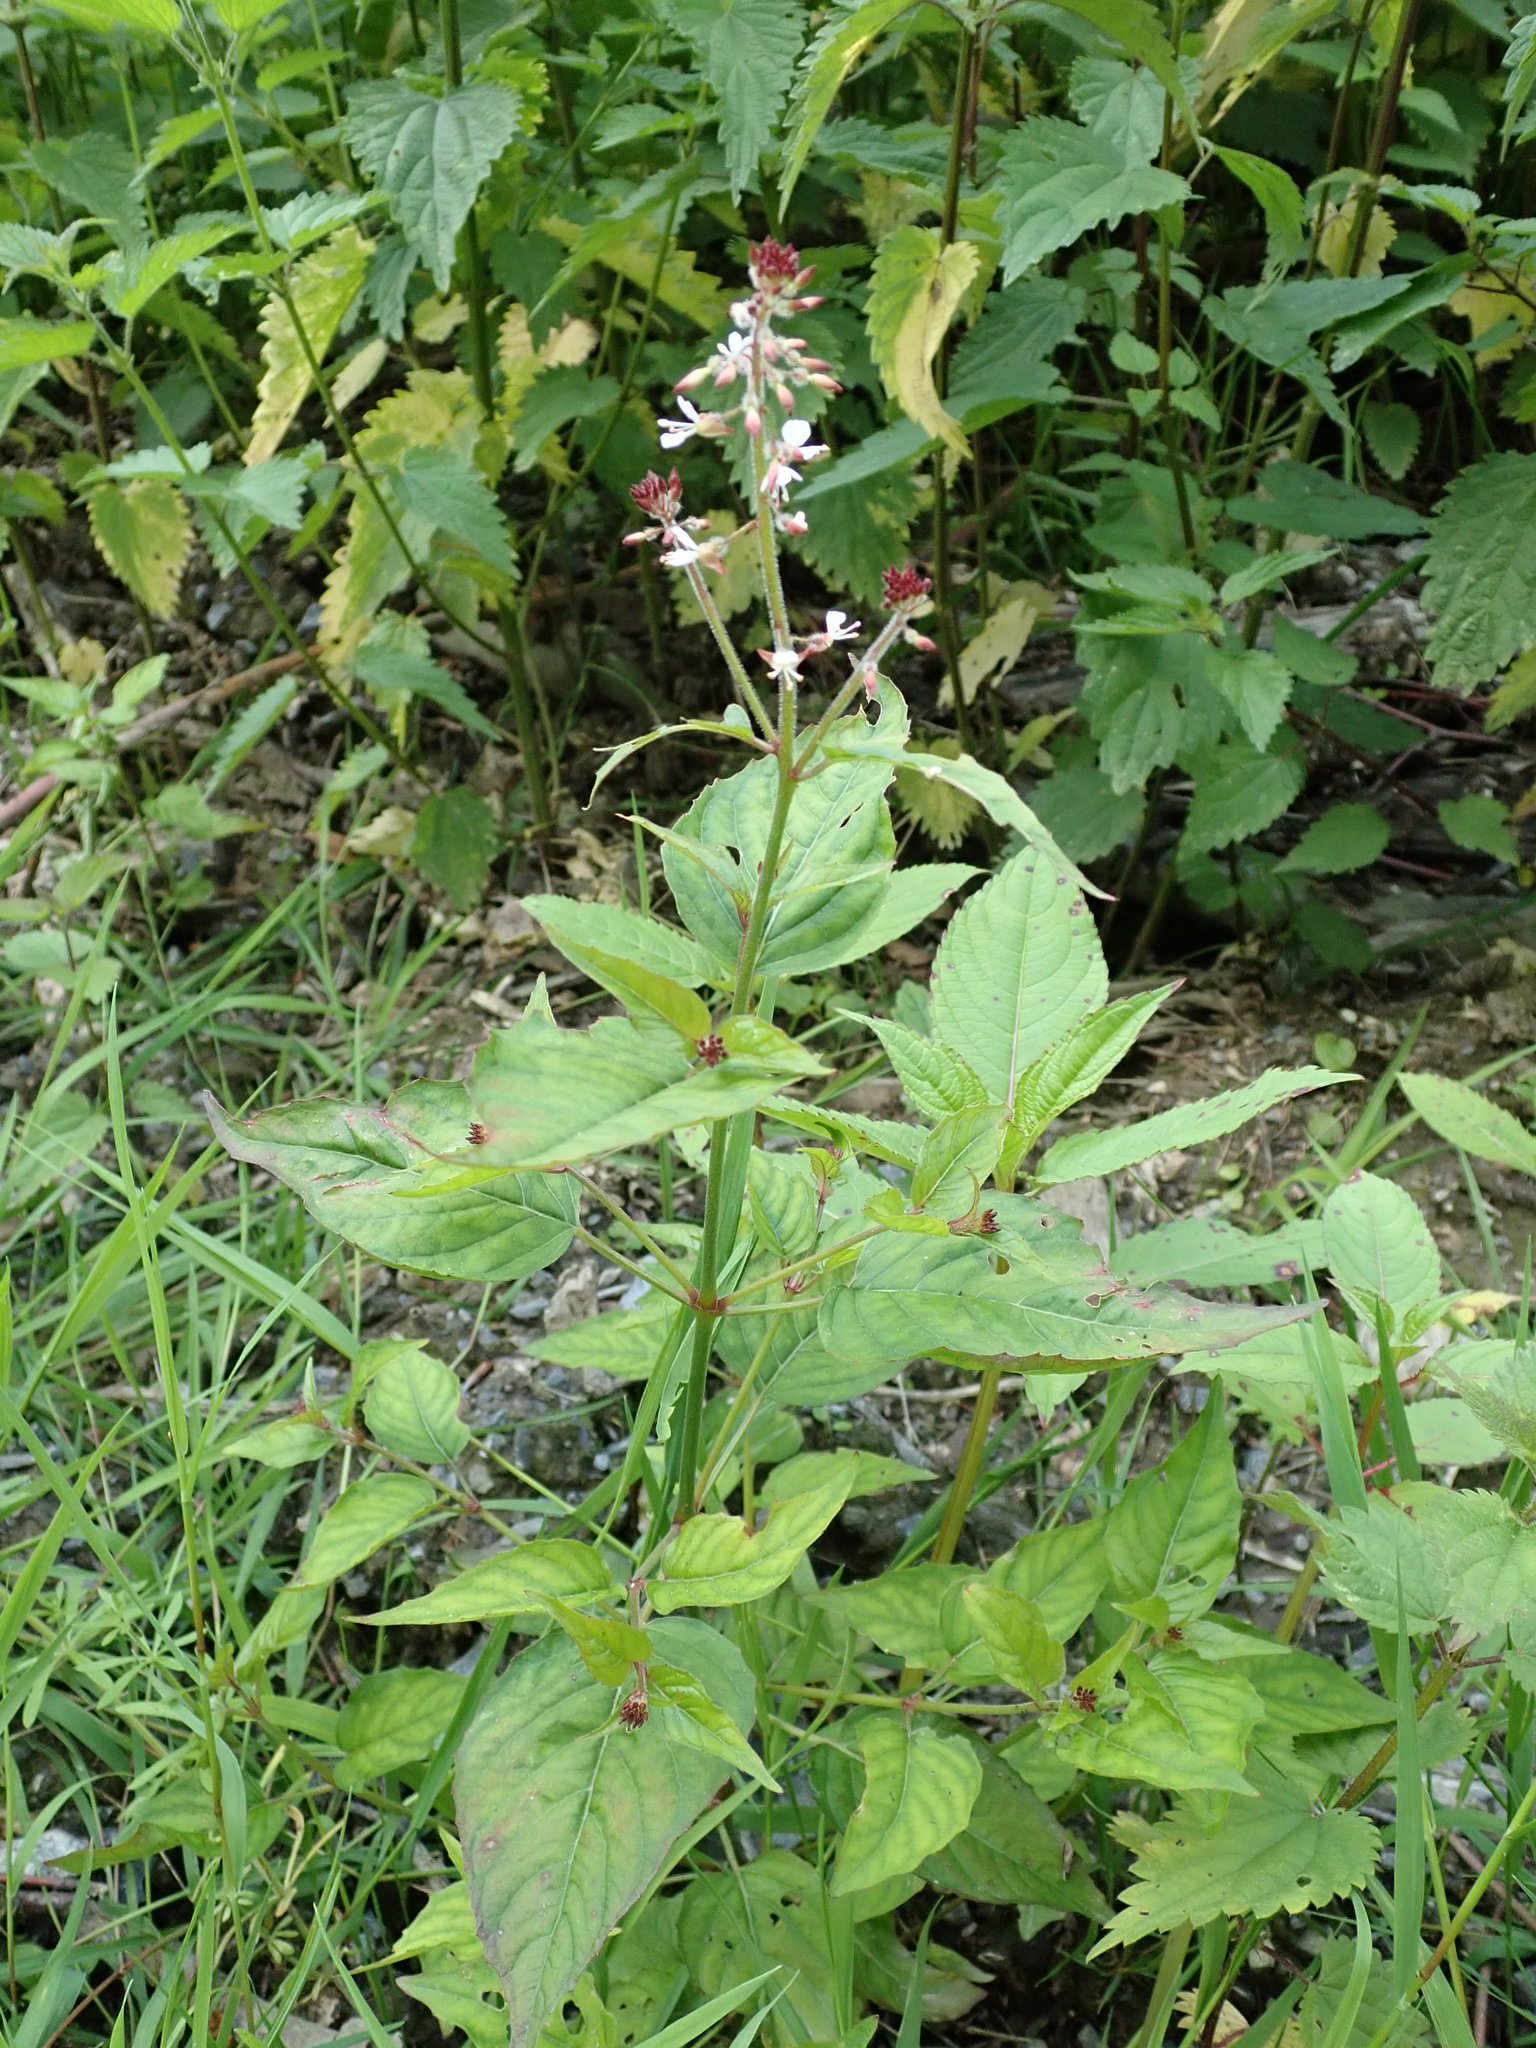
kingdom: Plantae
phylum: Tracheophyta
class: Magnoliopsida
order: Myrtales
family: Onagraceae
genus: Circaea
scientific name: Circaea lutetiana
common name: Enchanter's-nightshade
